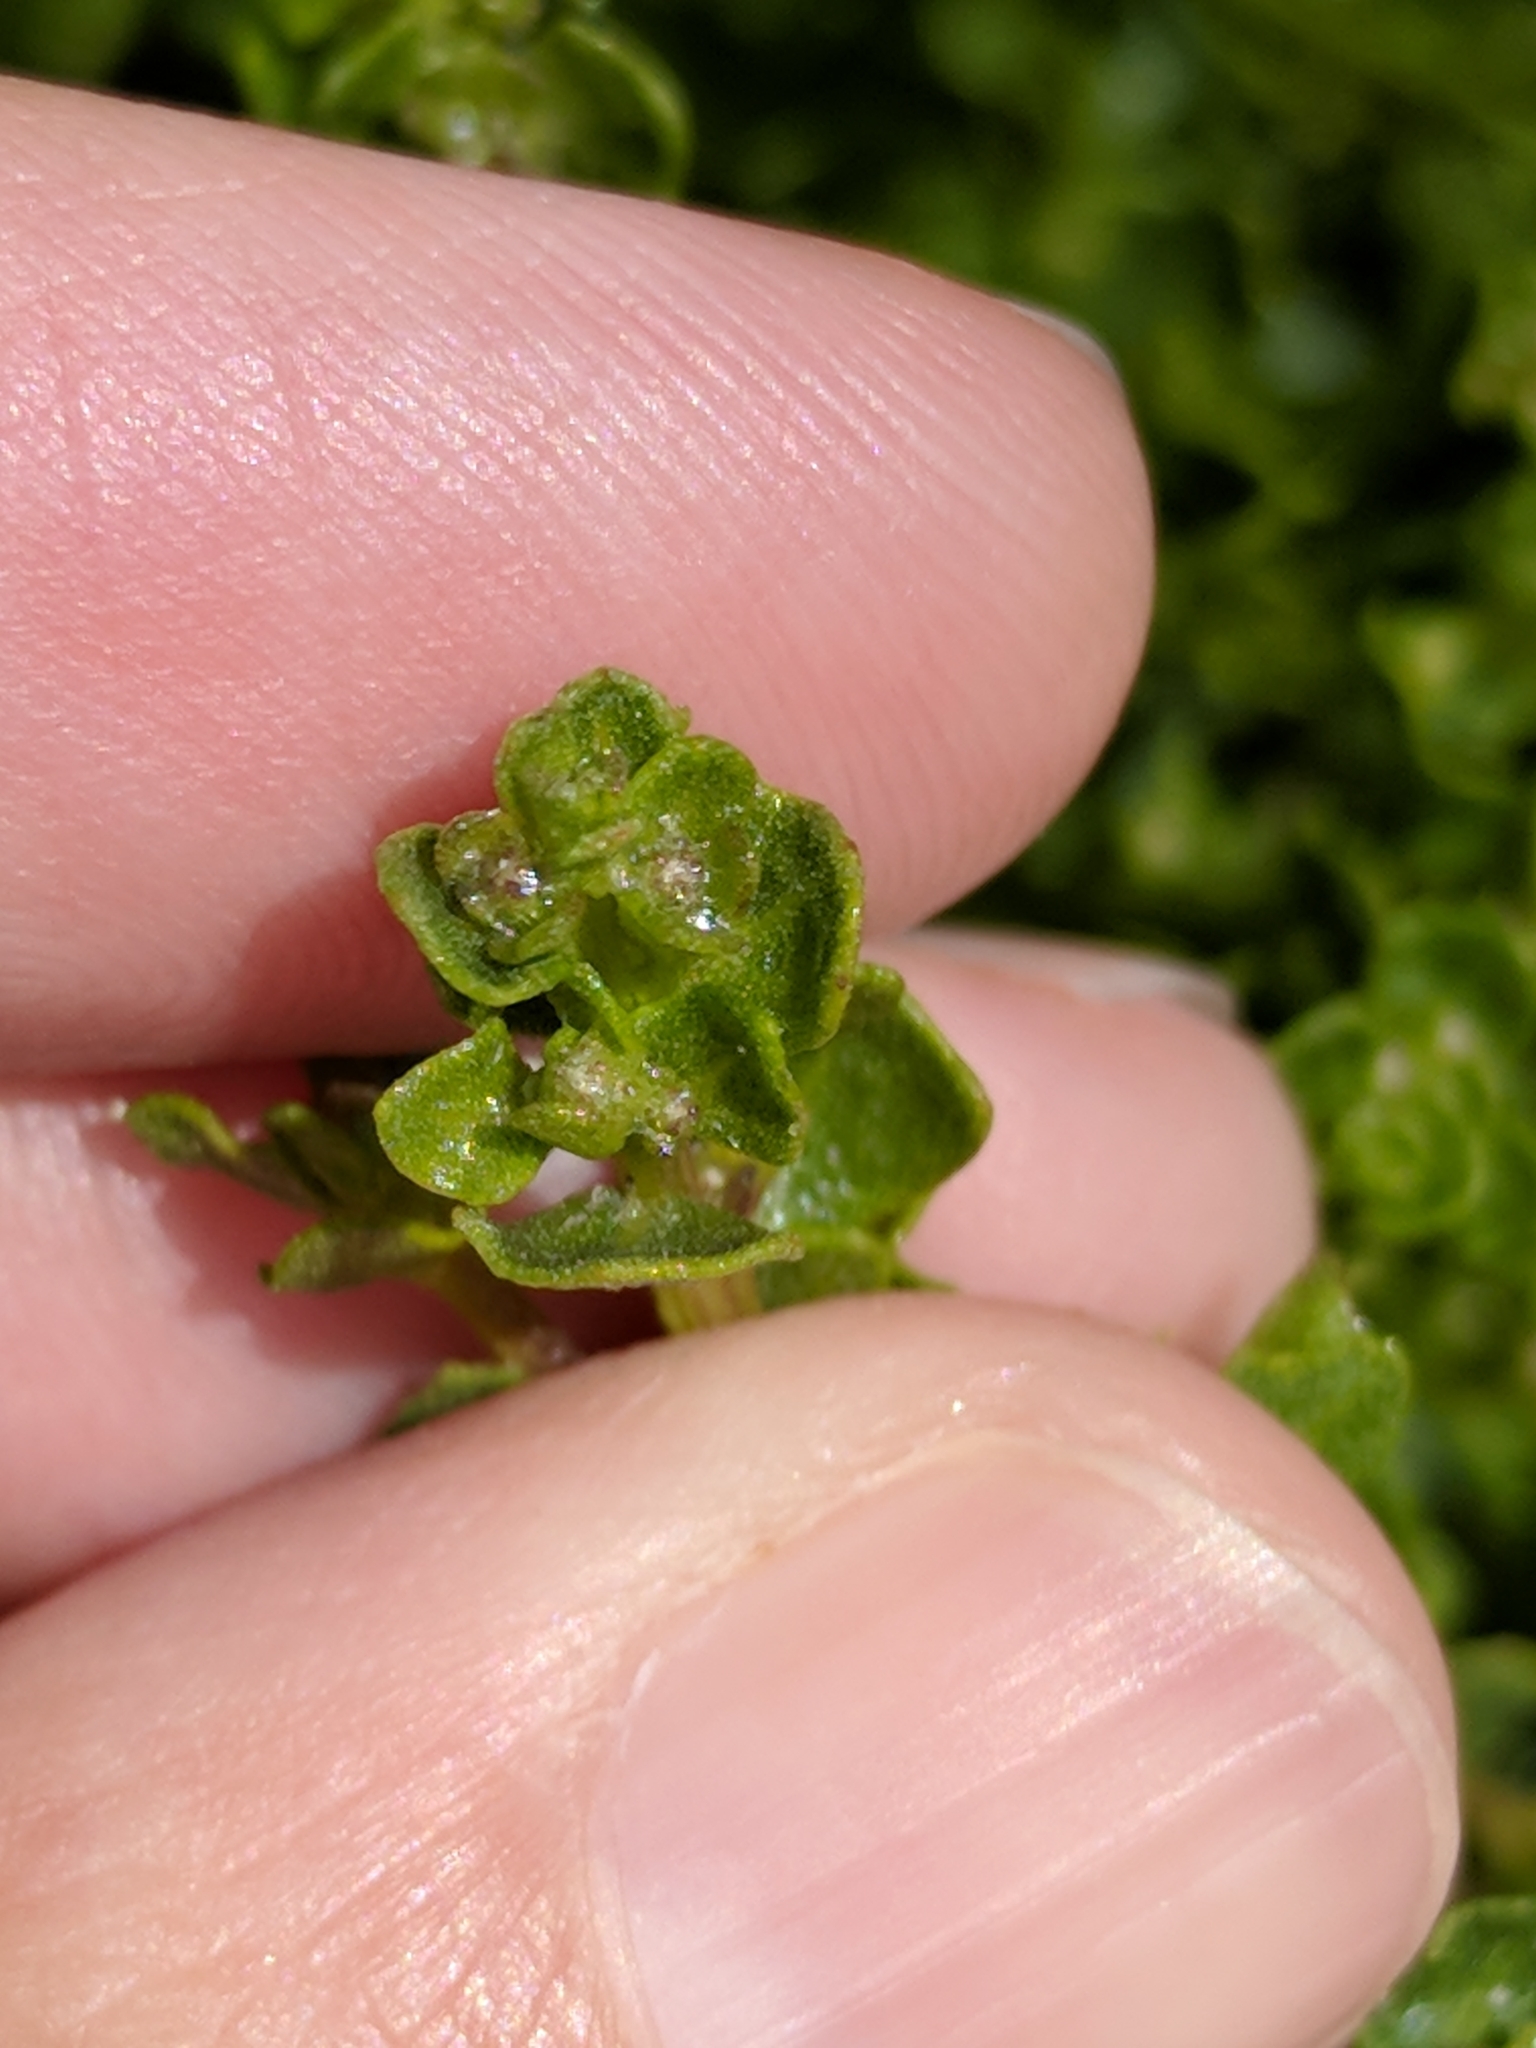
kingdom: Plantae
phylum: Tracheophyta
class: Magnoliopsida
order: Asterales
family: Asteraceae
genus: Baccharis
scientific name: Baccharis pilularis
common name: Coyotebrush
